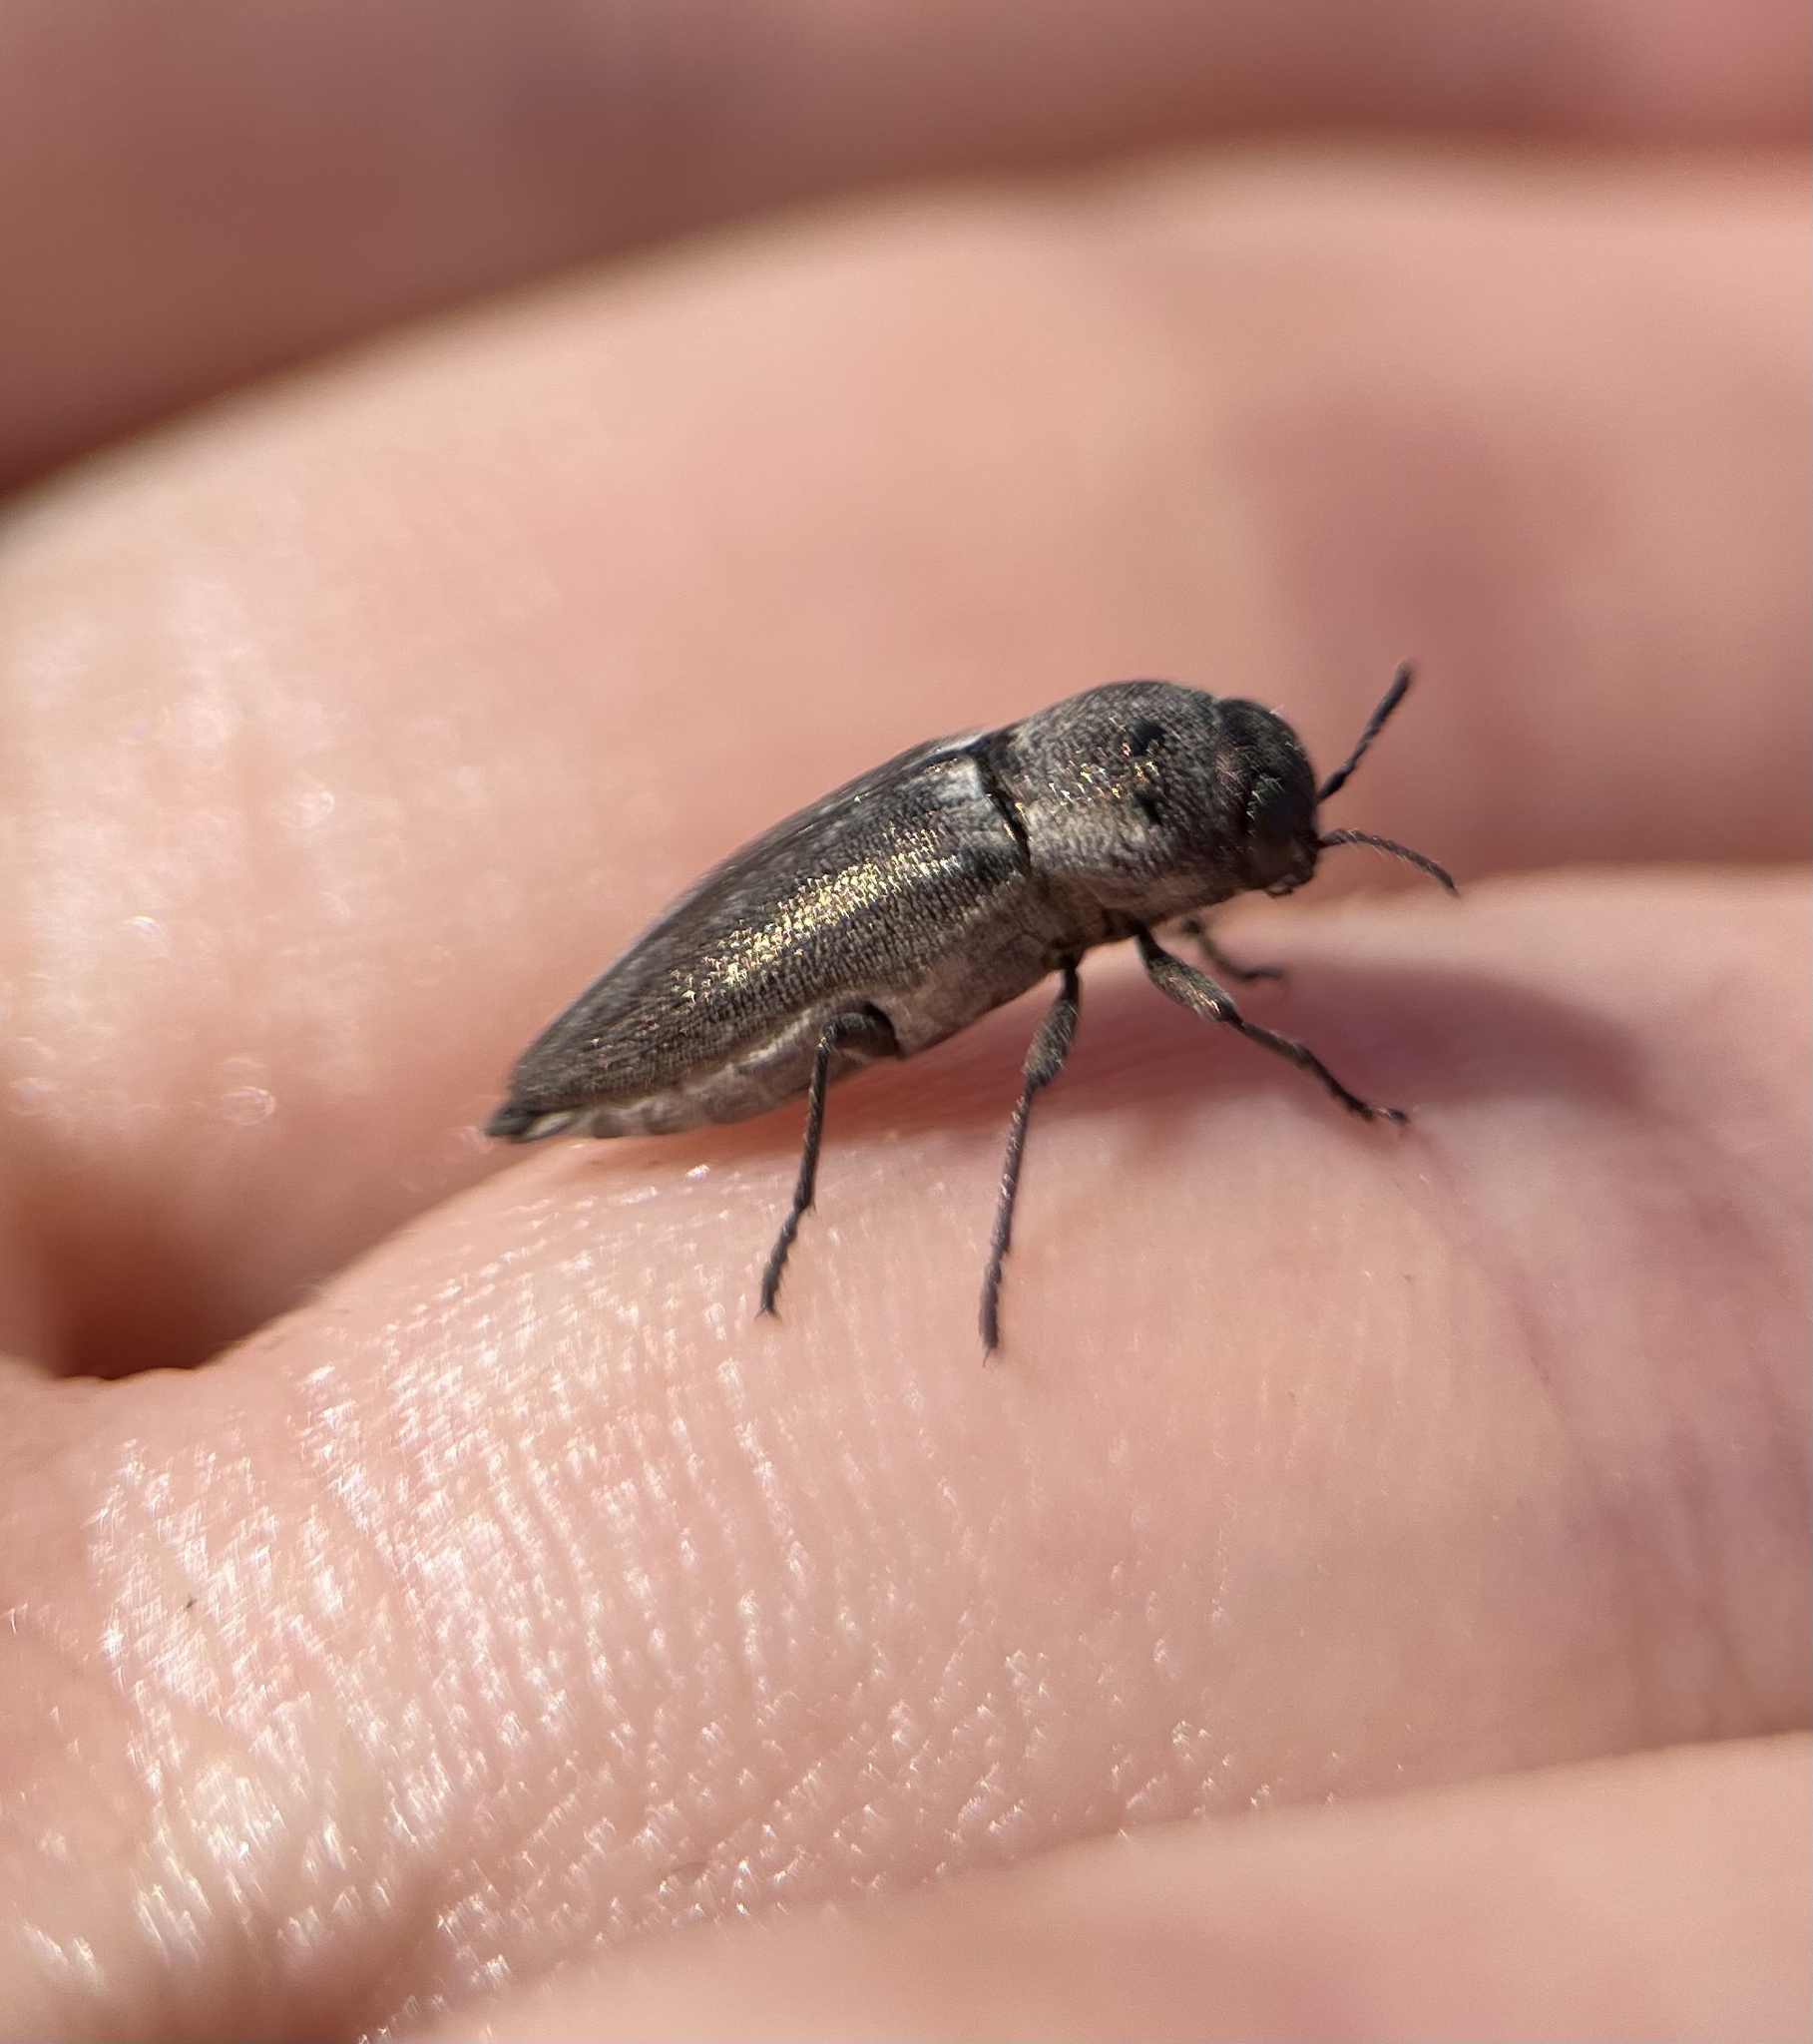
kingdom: Animalia
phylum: Arthropoda
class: Insecta
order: Coleoptera
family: Buprestidae
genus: Nanularia
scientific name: Nanularia cupreofusca
